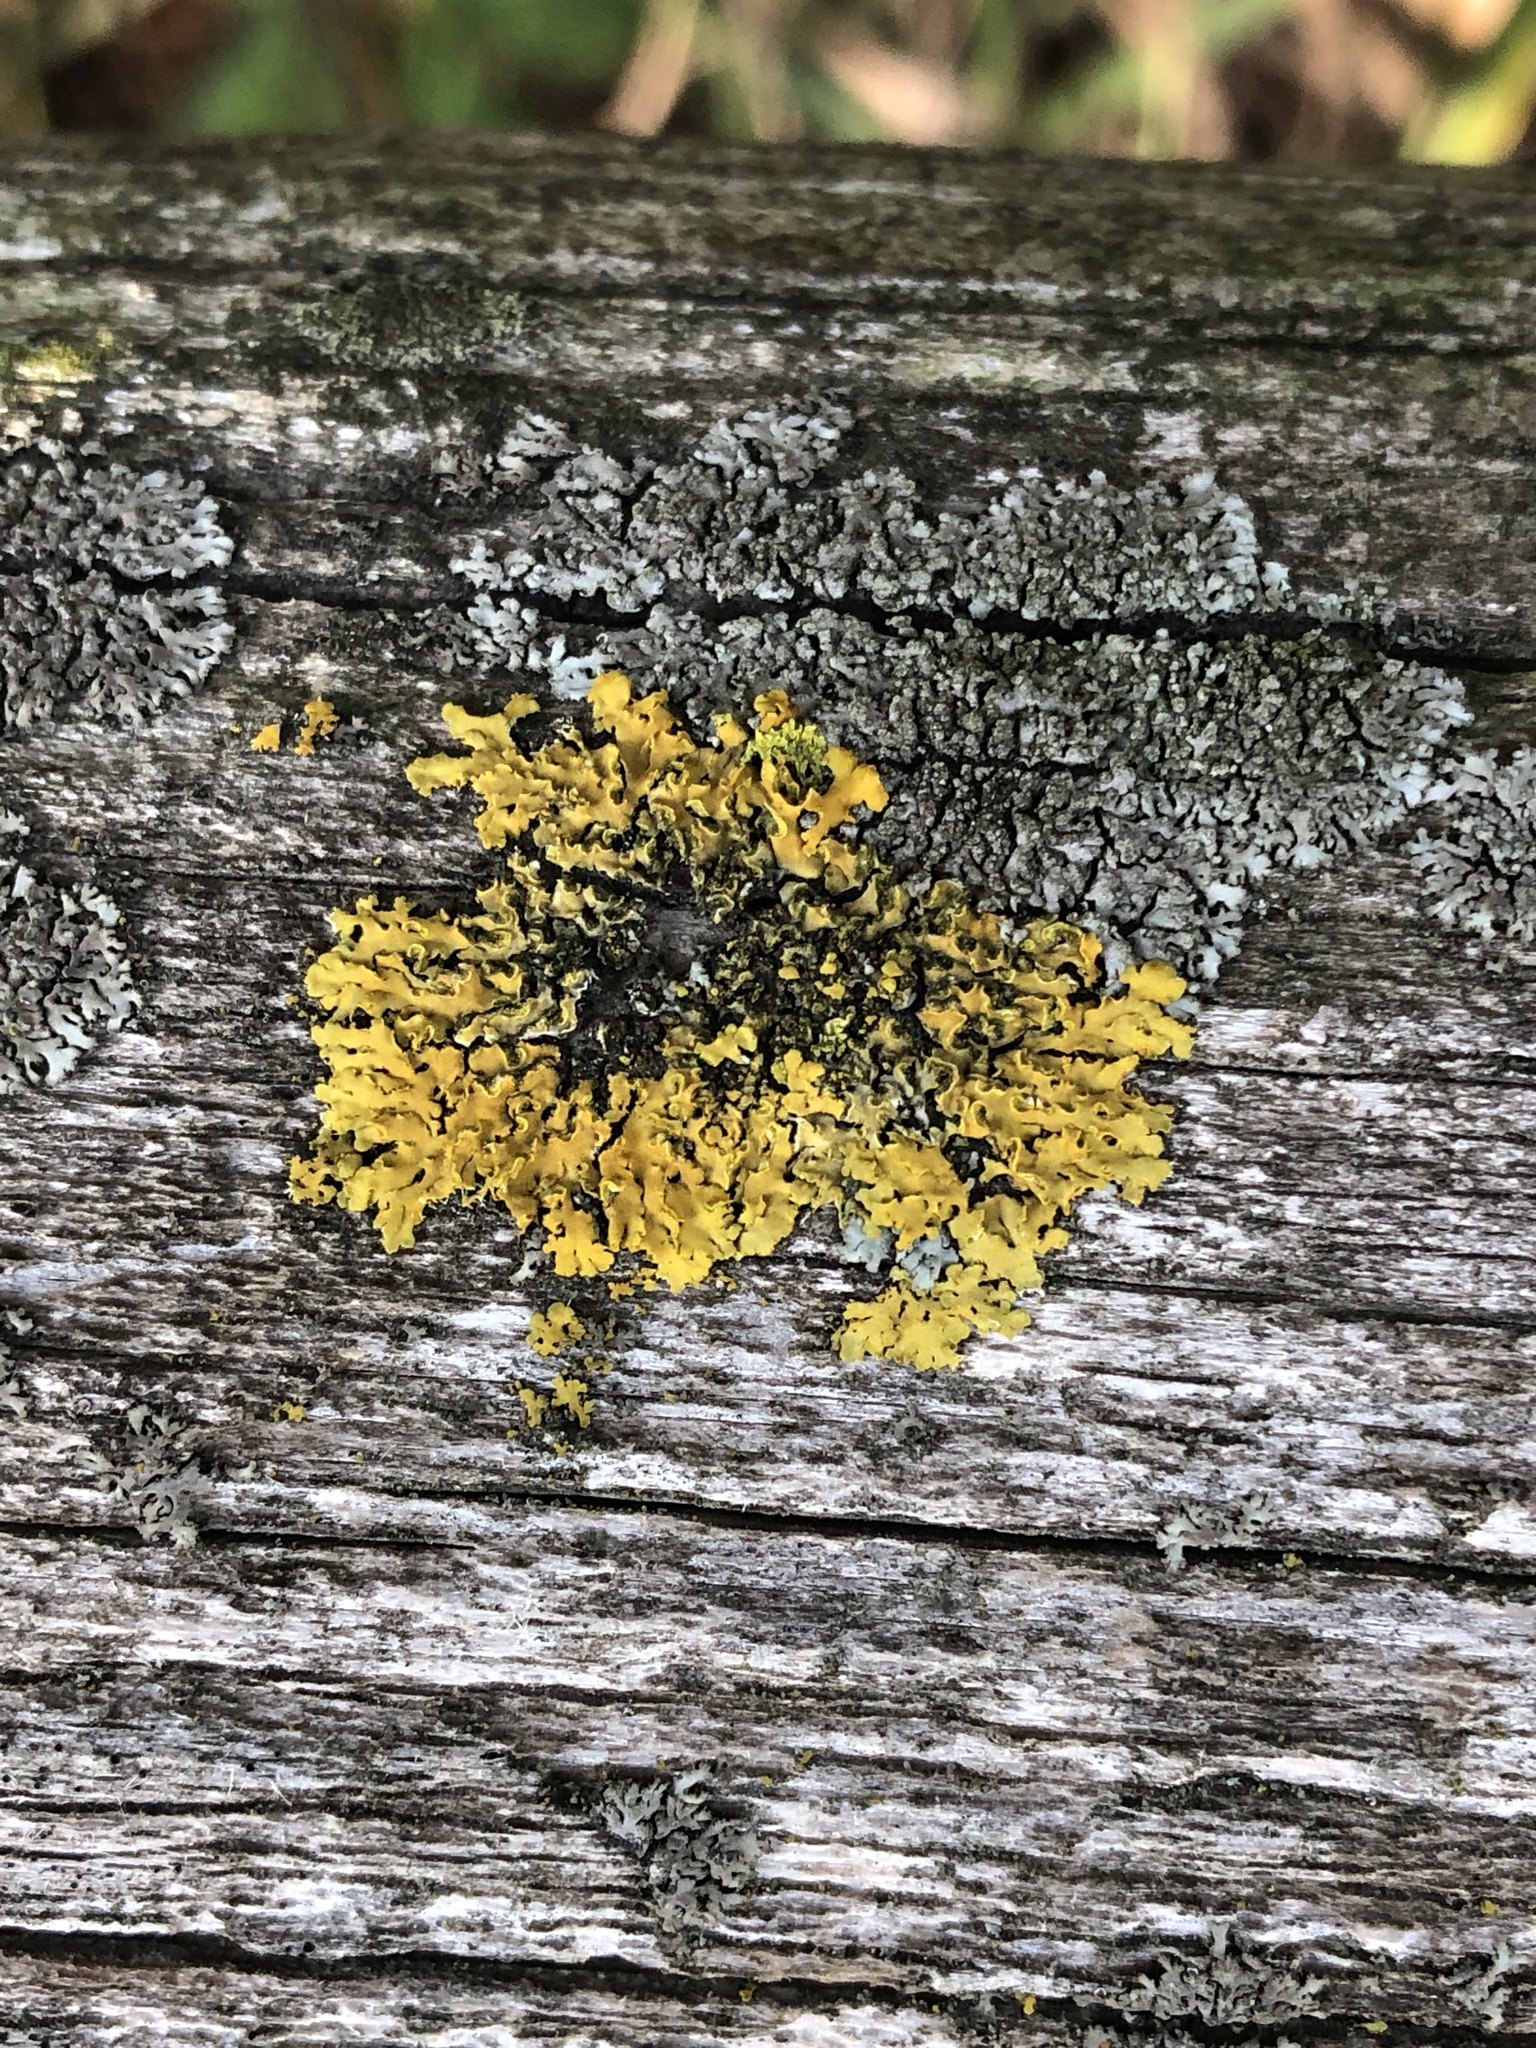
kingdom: Fungi
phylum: Ascomycota
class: Lecanoromycetes
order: Teloschistales
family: Teloschistaceae
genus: Oxneria
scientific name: Oxneria fallax
